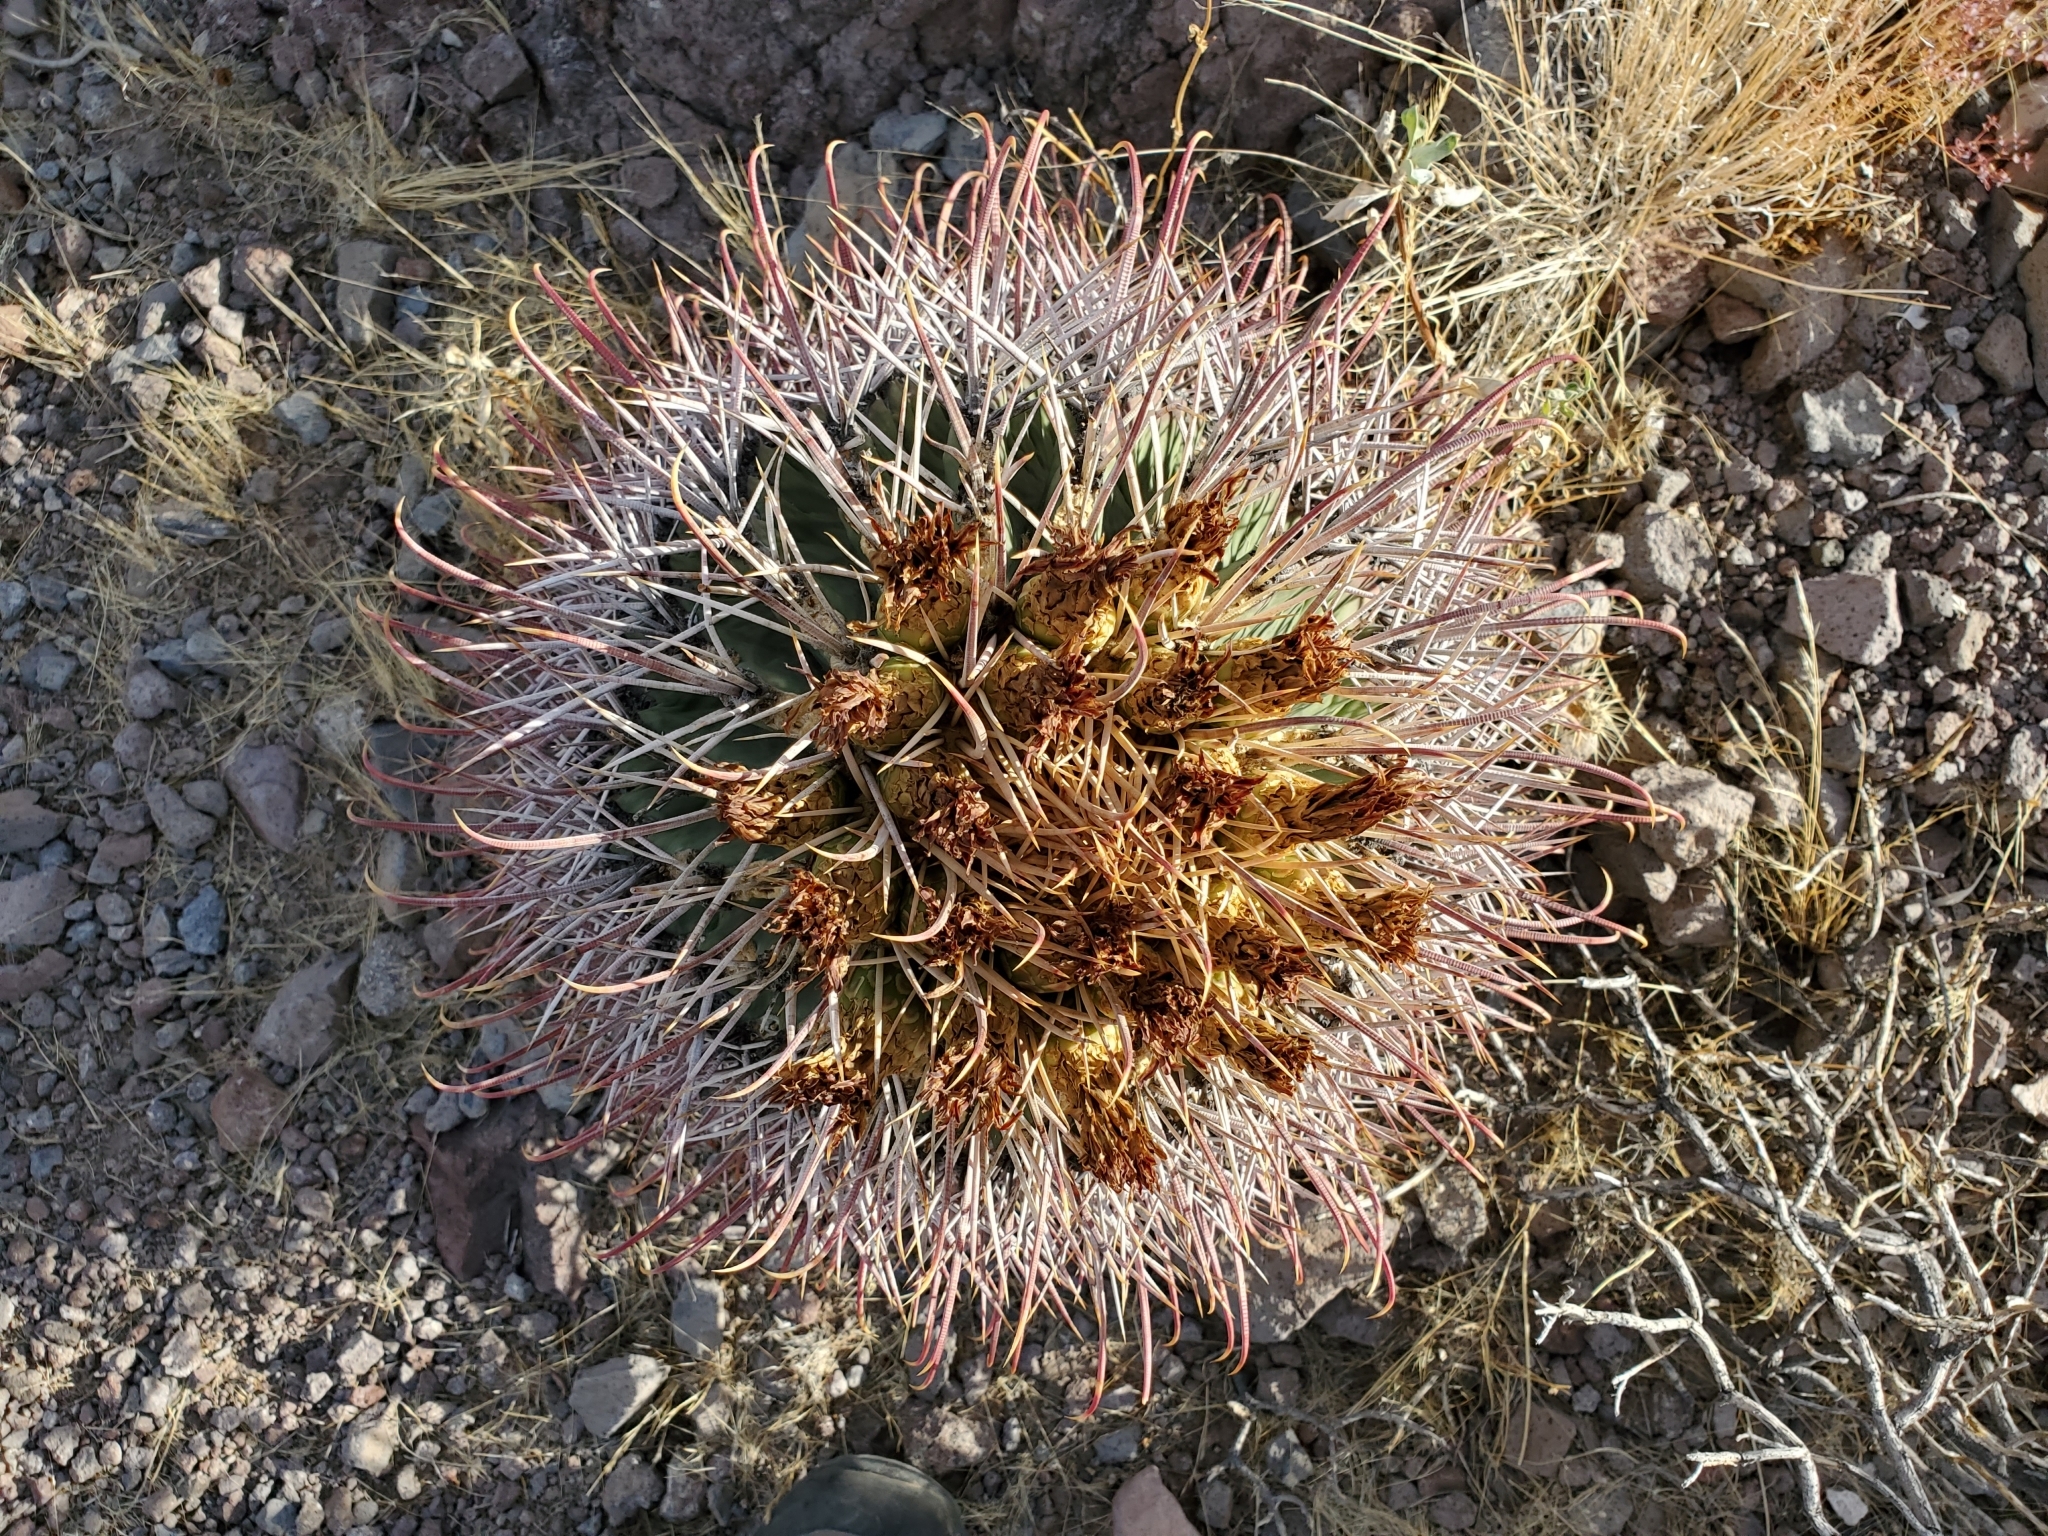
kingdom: Plantae
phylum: Tracheophyta
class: Magnoliopsida
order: Caryophyllales
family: Cactaceae
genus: Ferocactus
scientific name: Ferocactus emoryi
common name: Emory's barrel cactus
